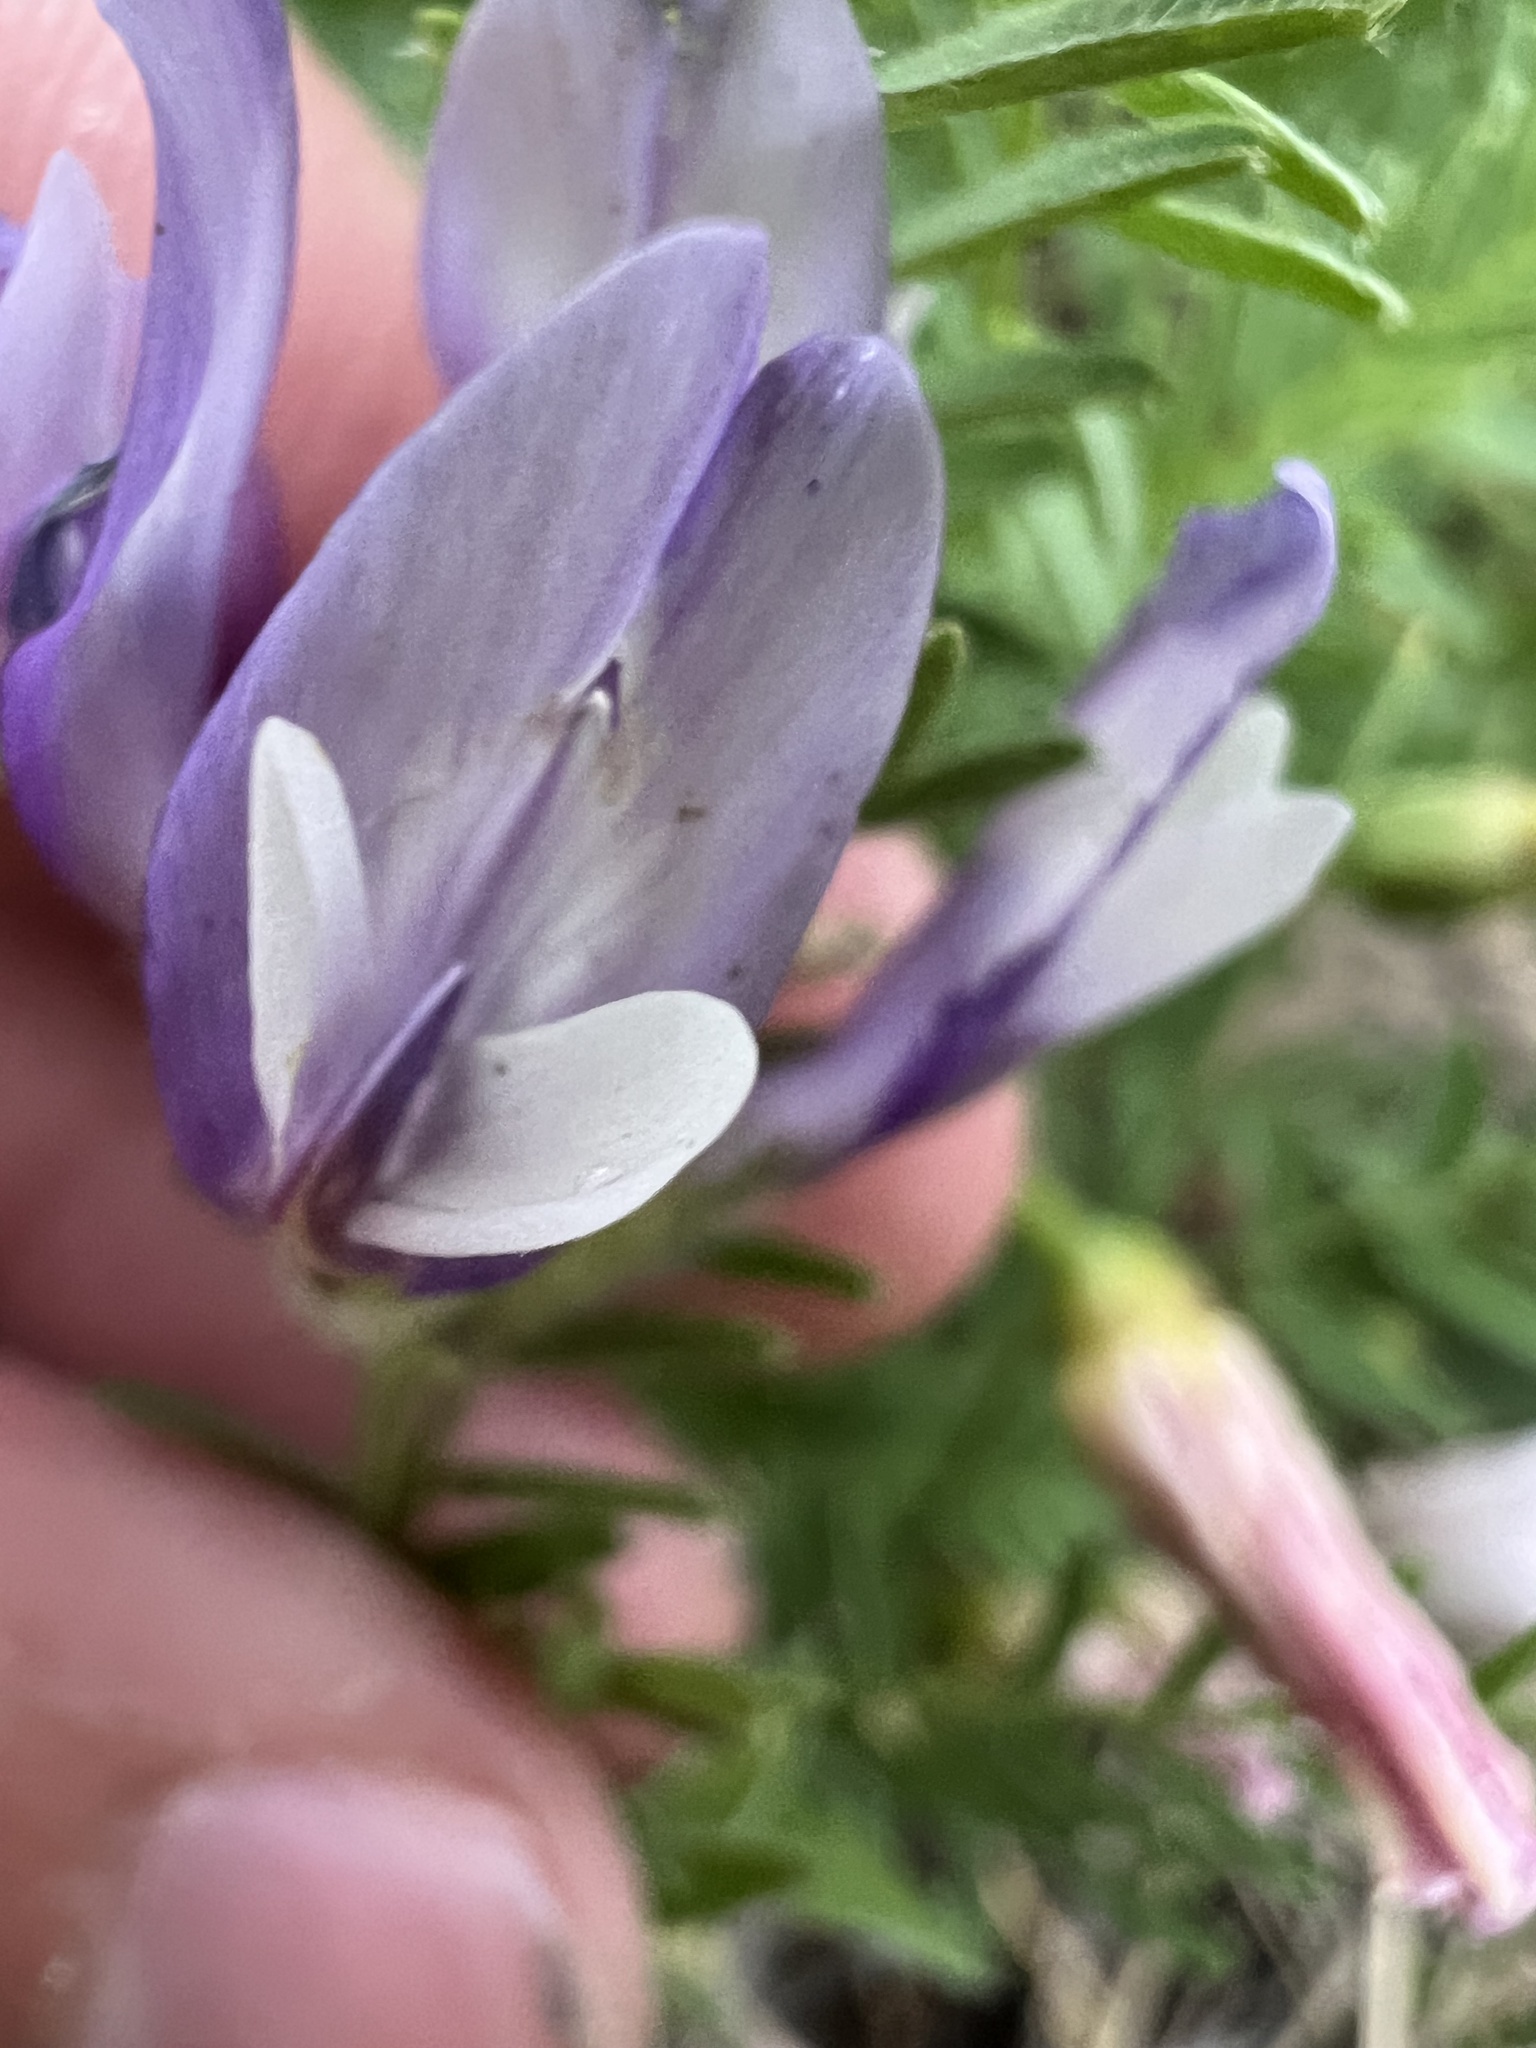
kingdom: Plantae
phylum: Tracheophyta
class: Magnoliopsida
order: Fabales
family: Fabaceae
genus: Astragalus
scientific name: Astragalus agrestis
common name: Field milk-vetch
